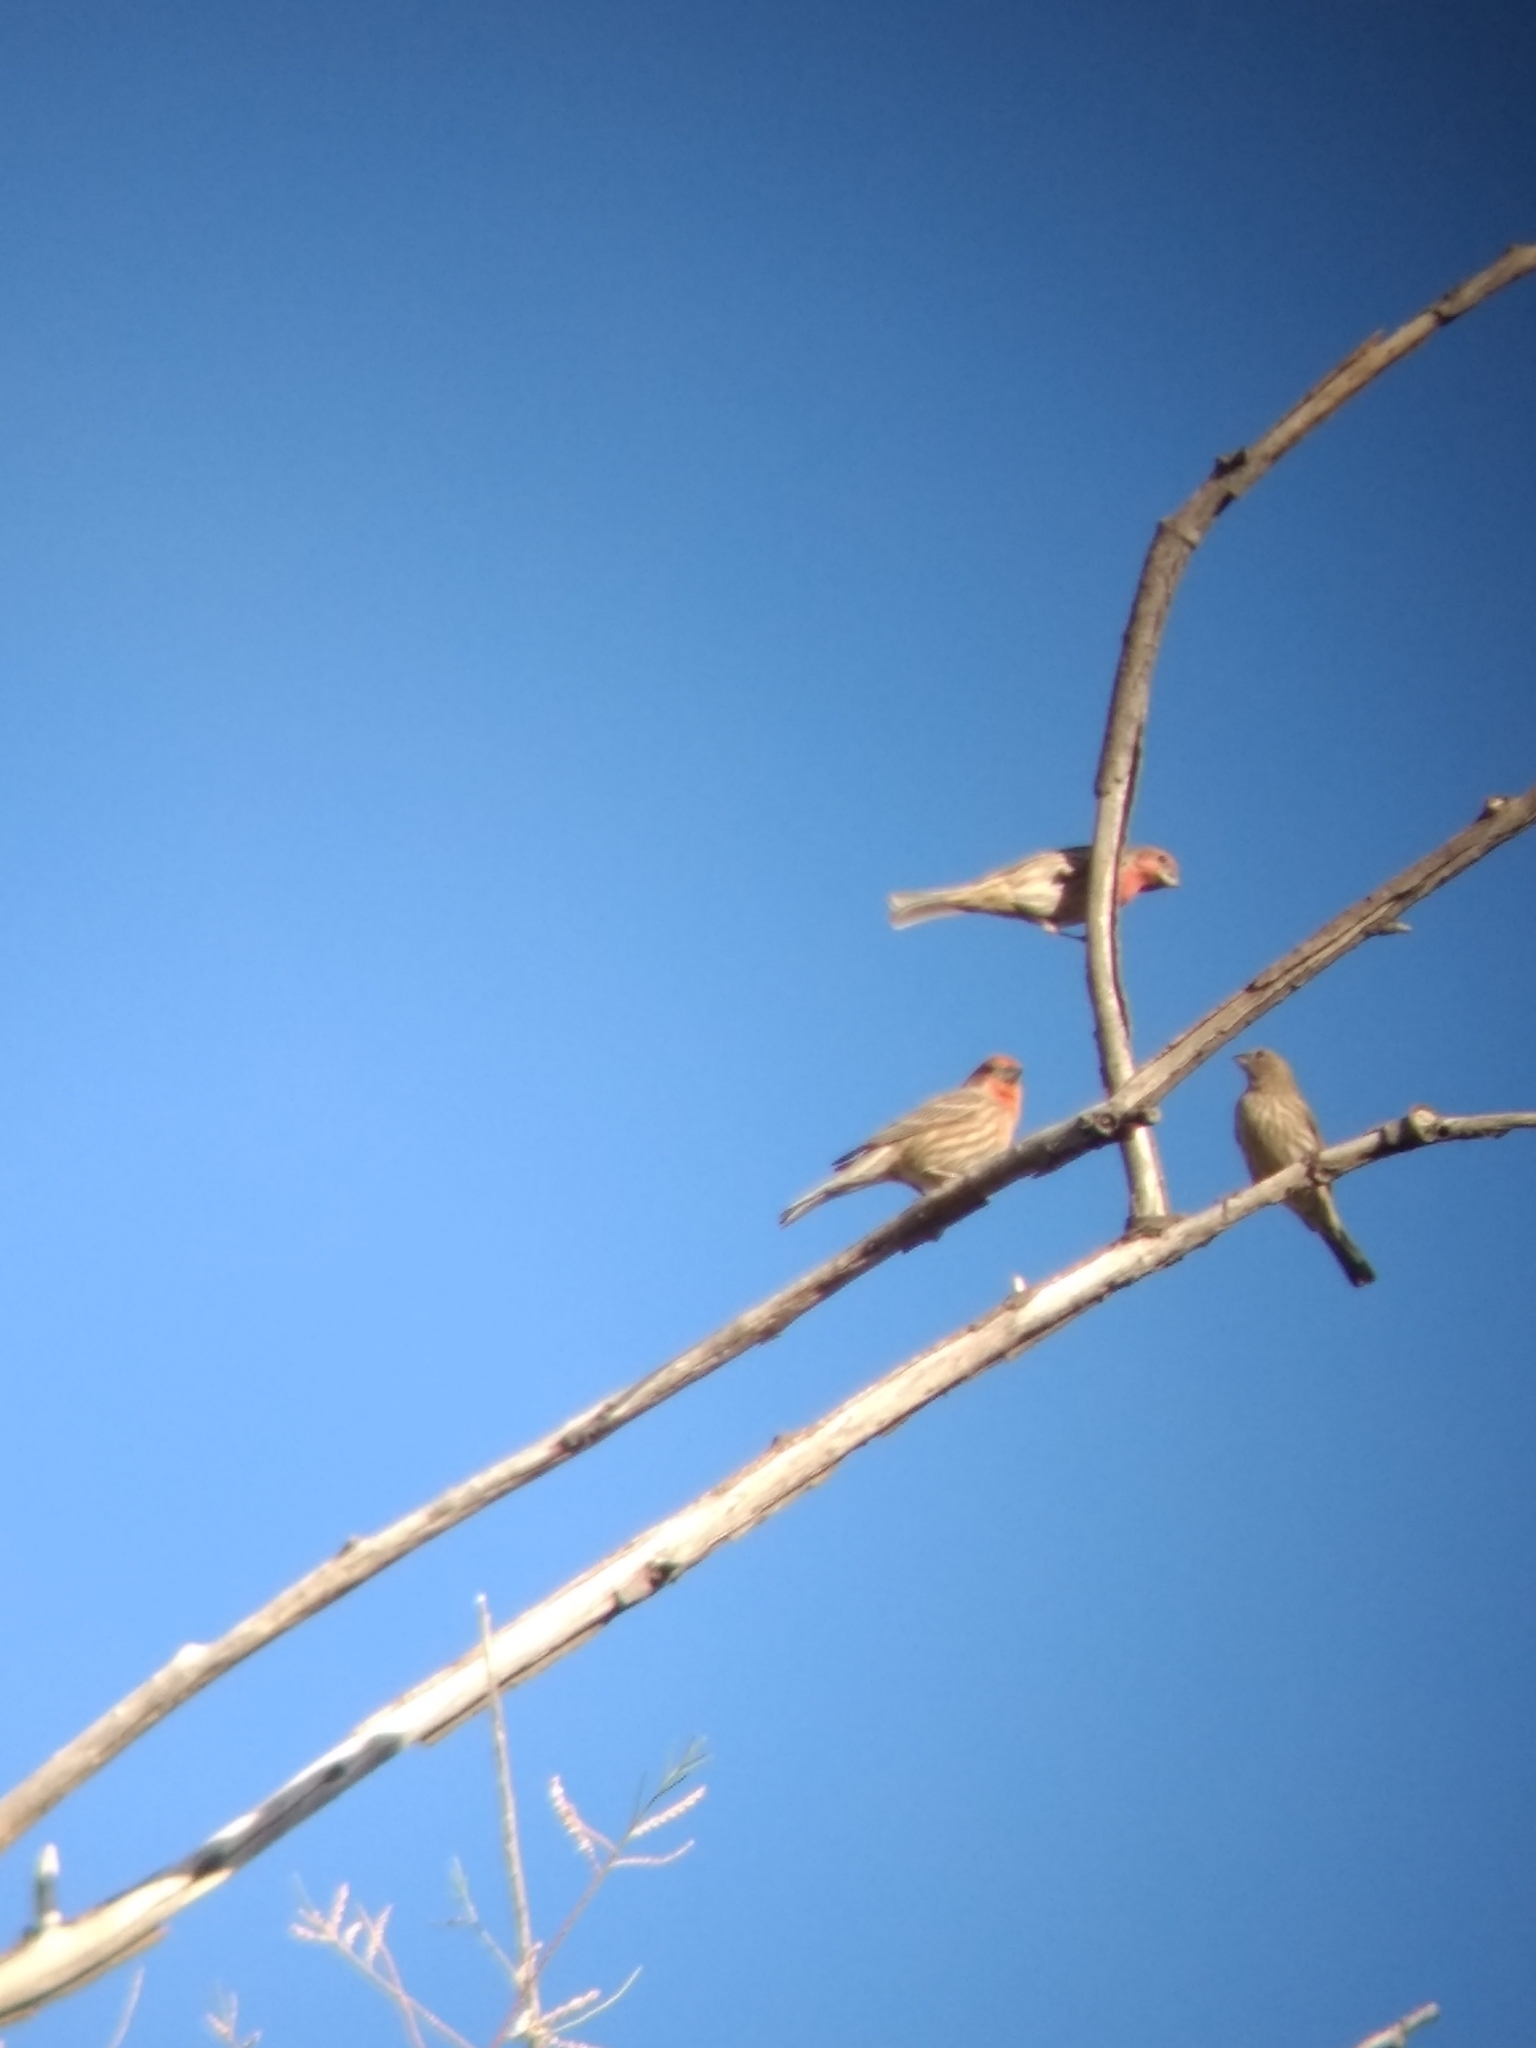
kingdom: Animalia
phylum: Chordata
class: Aves
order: Passeriformes
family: Fringillidae
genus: Haemorhous
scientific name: Haemorhous mexicanus
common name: House finch
